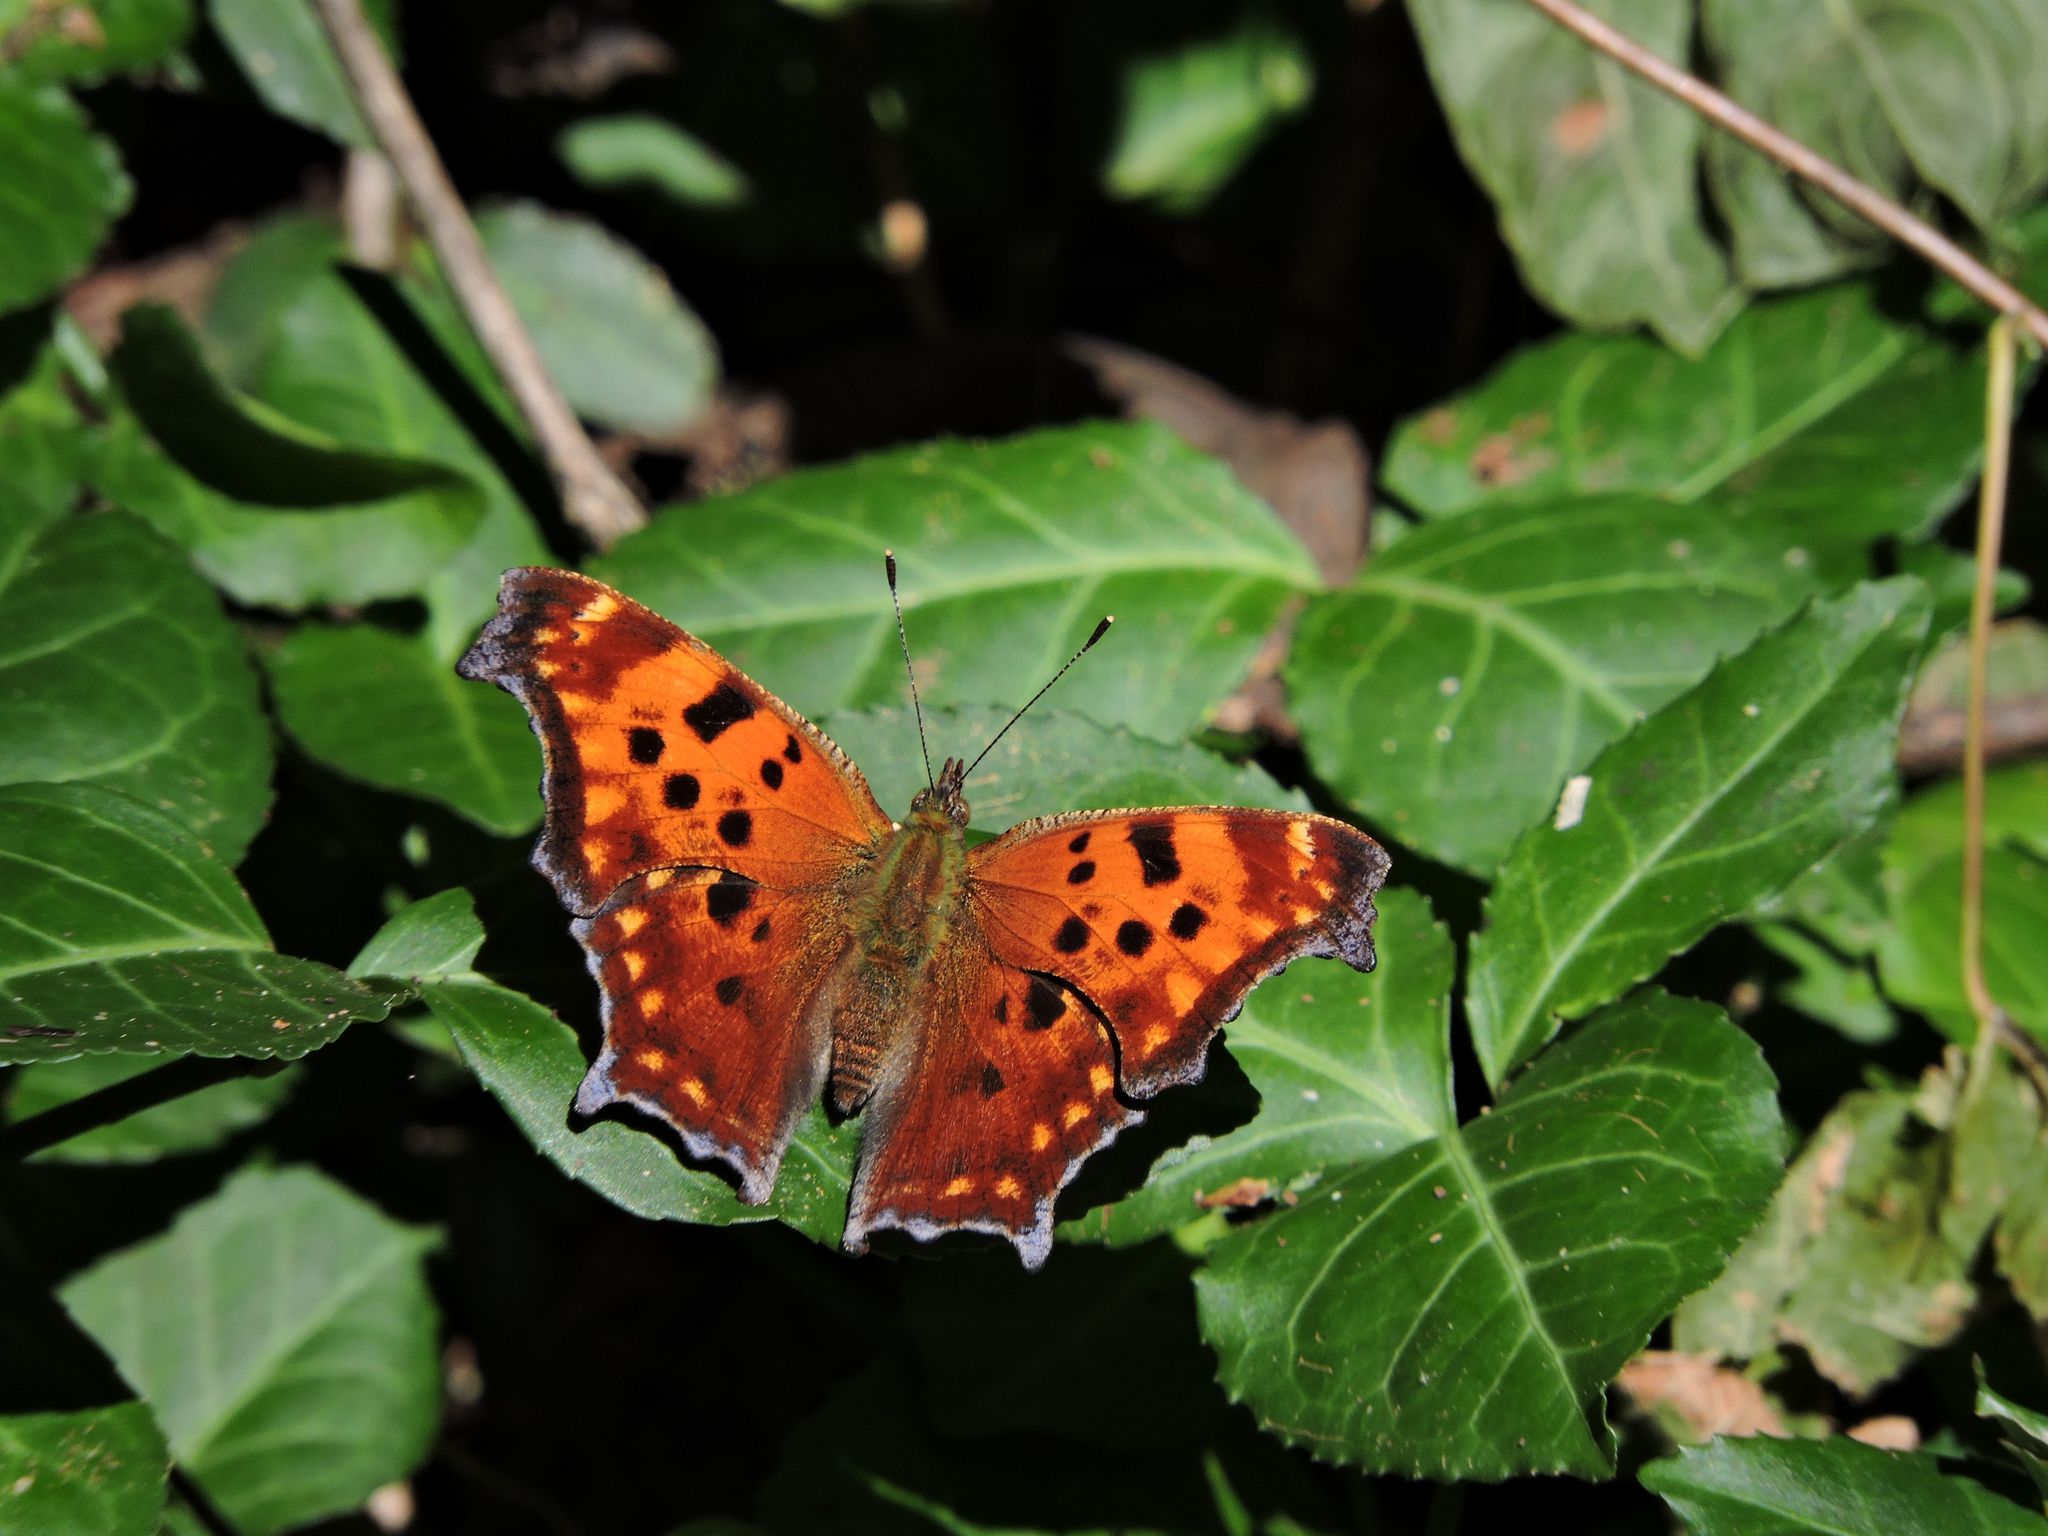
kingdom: Animalia
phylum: Arthropoda
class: Insecta
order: Lepidoptera
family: Nymphalidae
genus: Polygonia
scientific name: Polygonia comma
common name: Eastern comma
